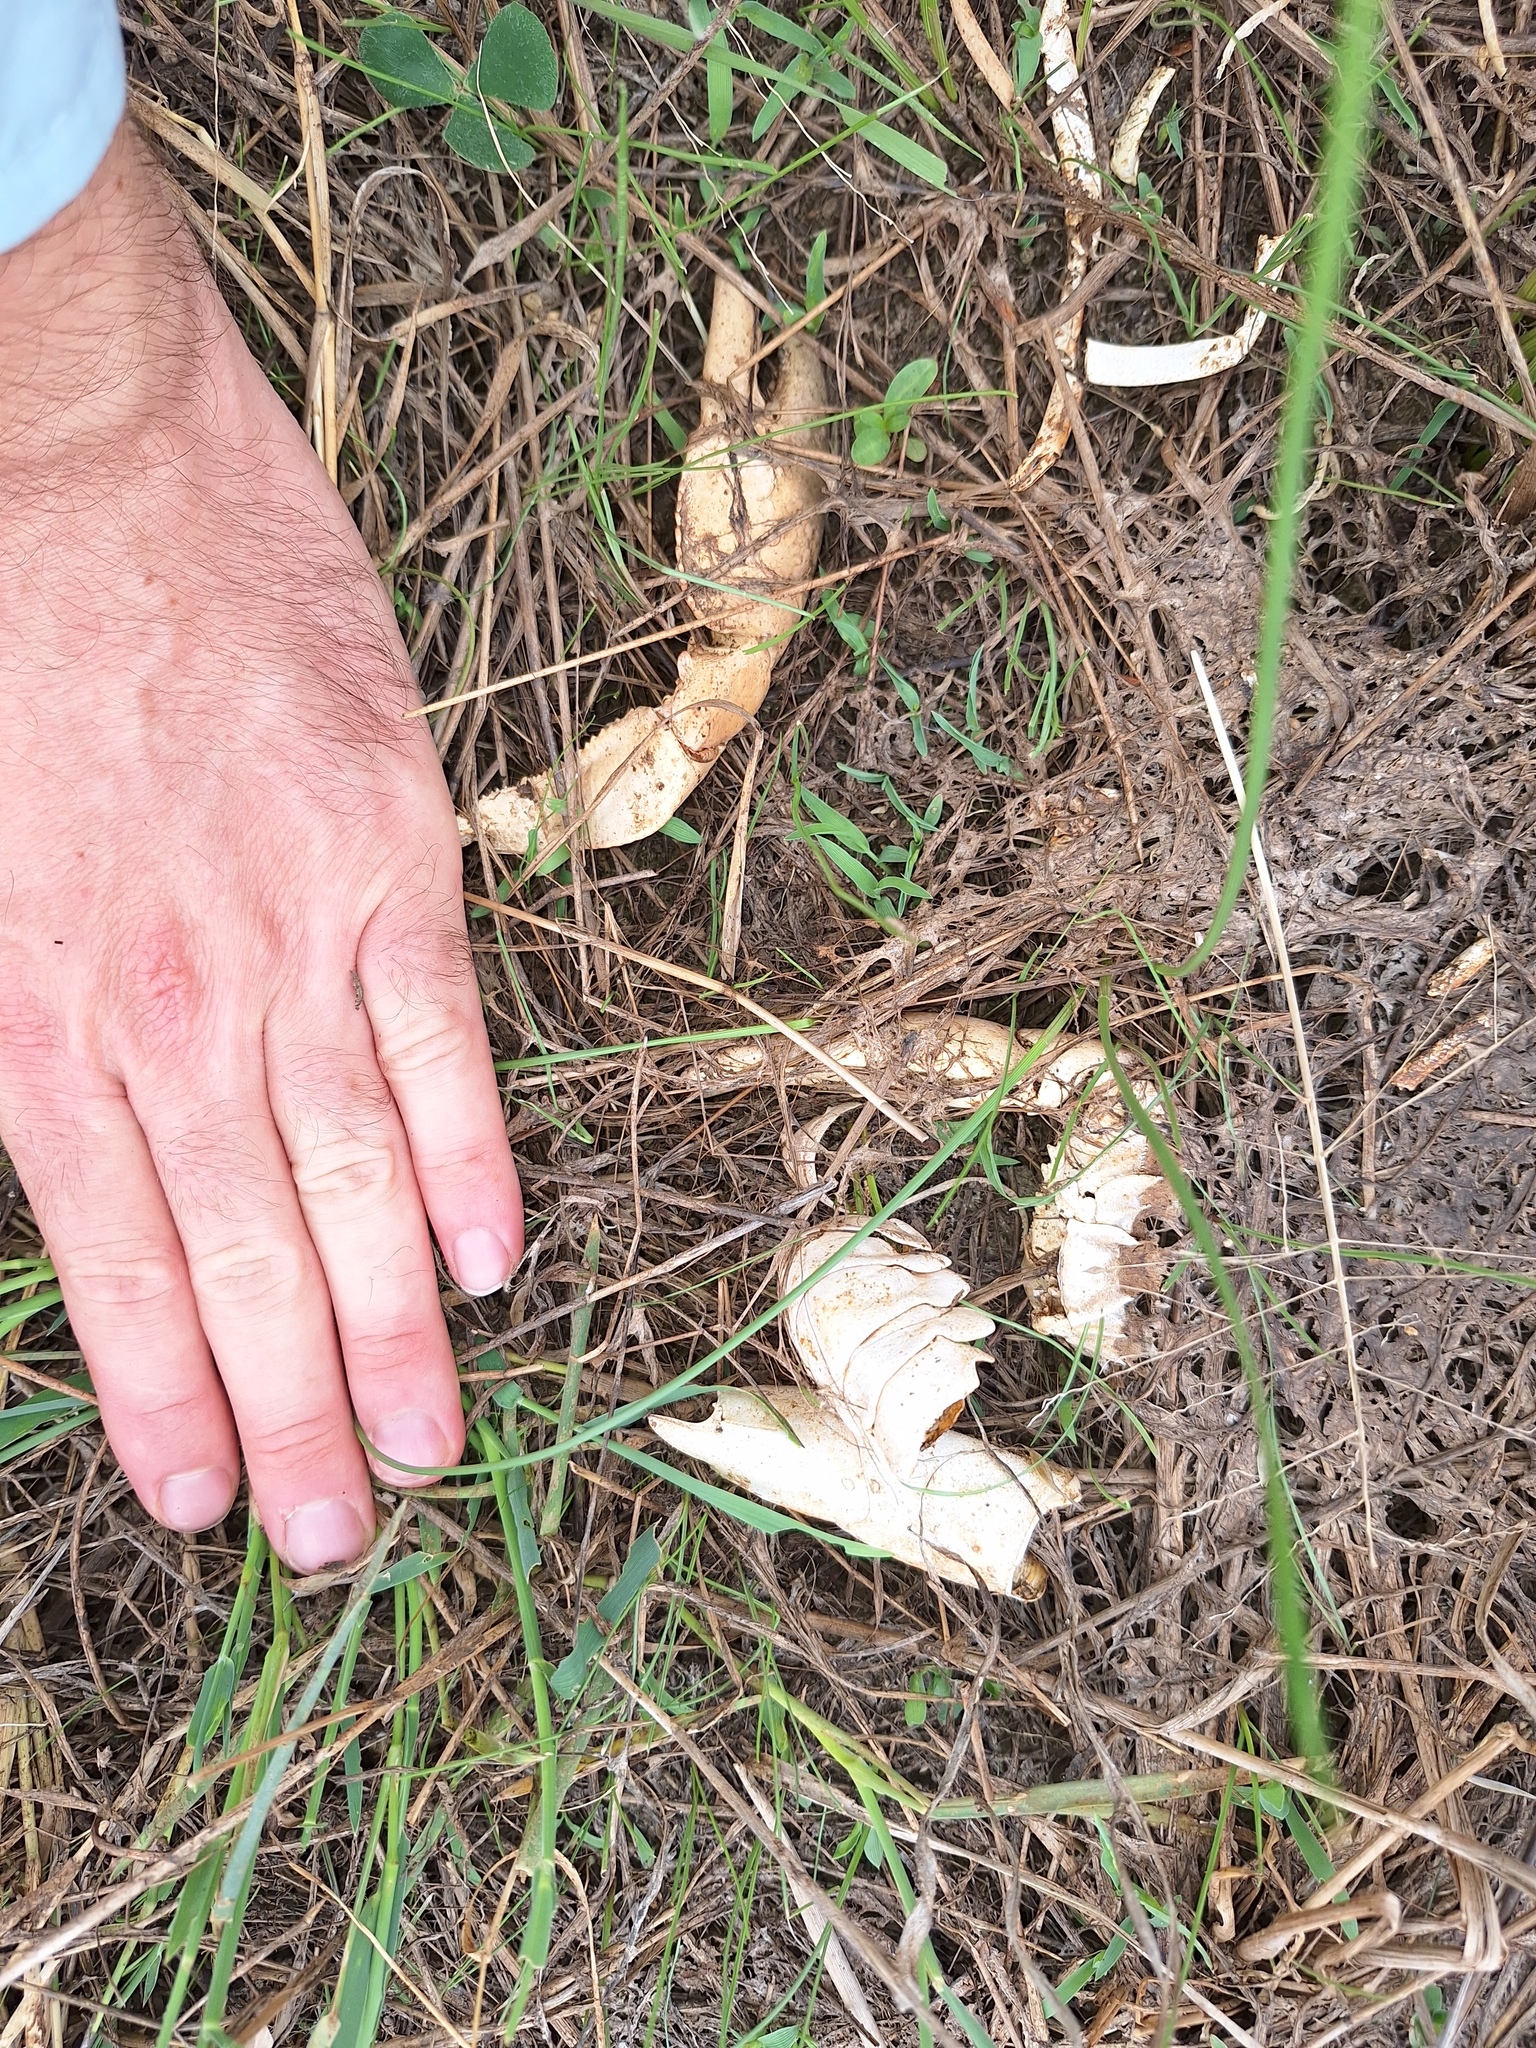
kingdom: Animalia
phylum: Arthropoda
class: Malacostraca
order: Decapoda
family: Parastacidae
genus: Cherax
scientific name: Cherax destructor
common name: Yabby
